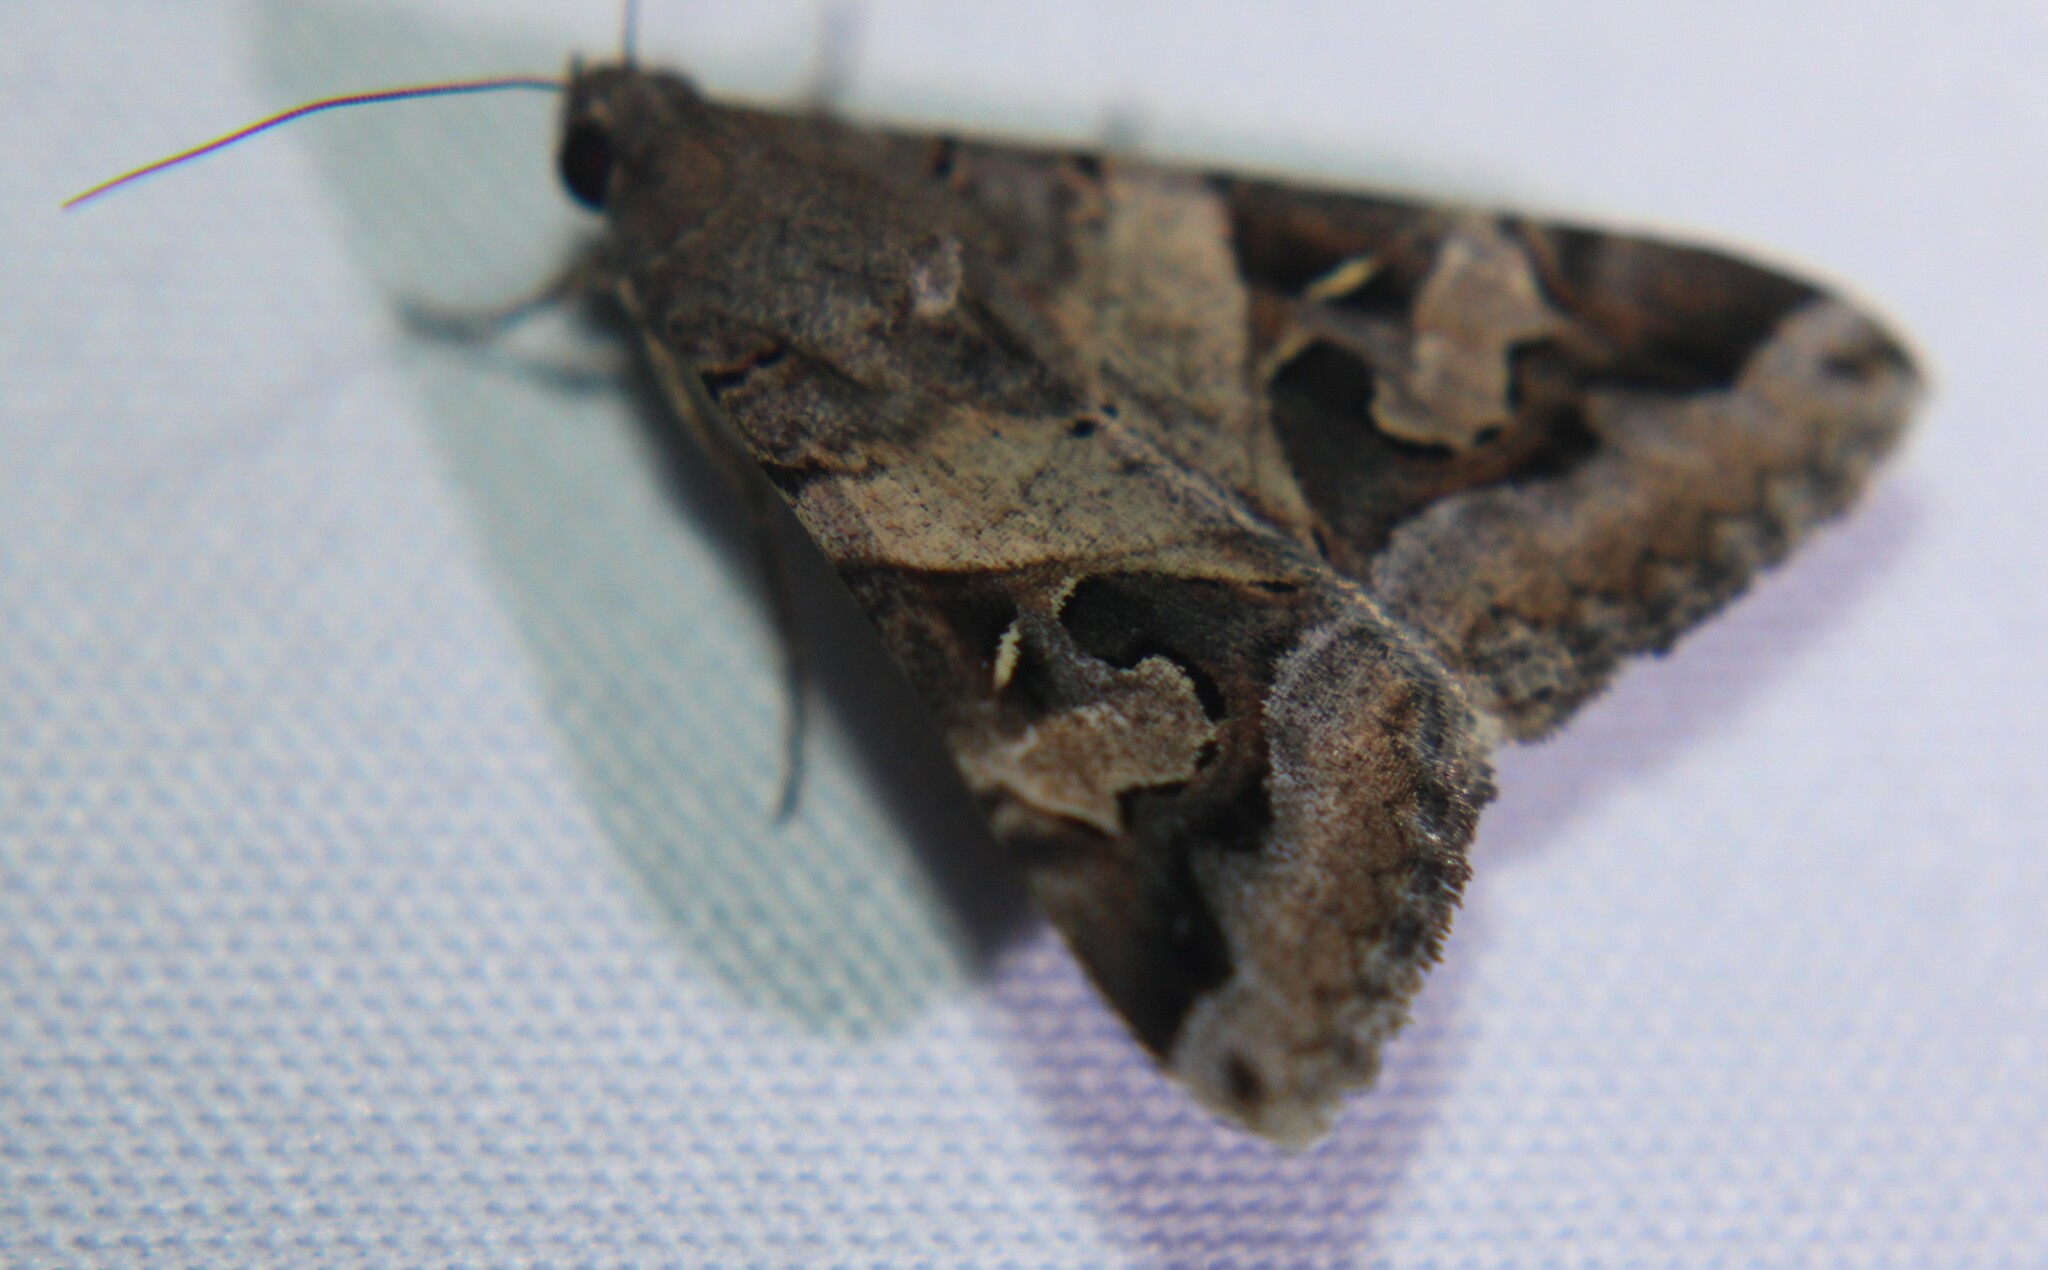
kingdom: Animalia
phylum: Arthropoda
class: Insecta
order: Lepidoptera
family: Erebidae
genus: Melipotis
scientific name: Melipotis indomita
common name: Moth
